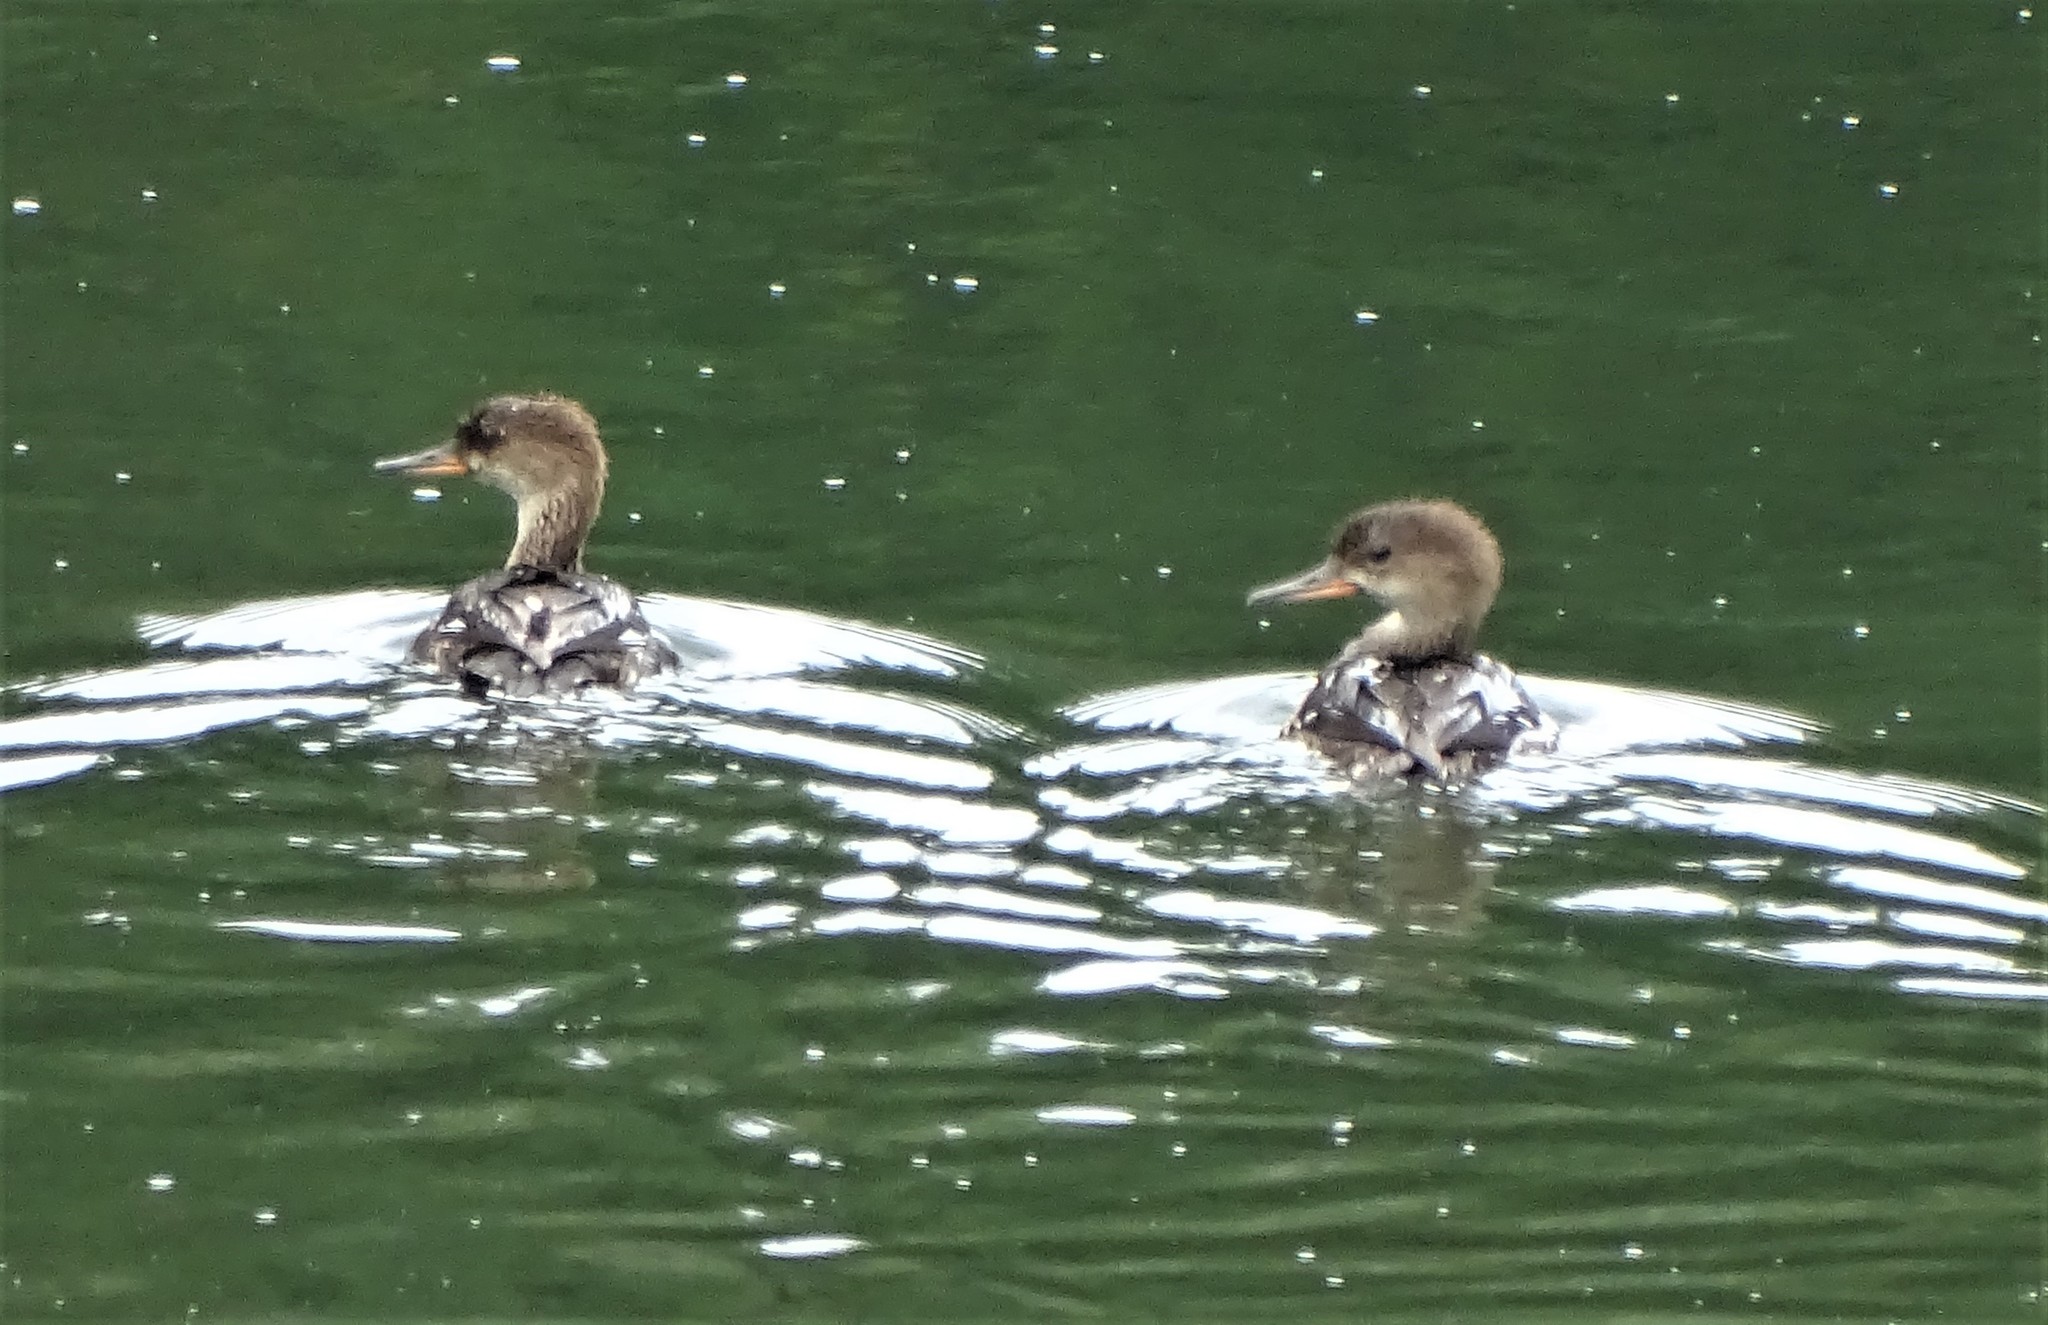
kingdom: Animalia
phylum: Chordata
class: Aves
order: Anseriformes
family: Anatidae
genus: Lophodytes
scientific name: Lophodytes cucullatus
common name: Hooded merganser
